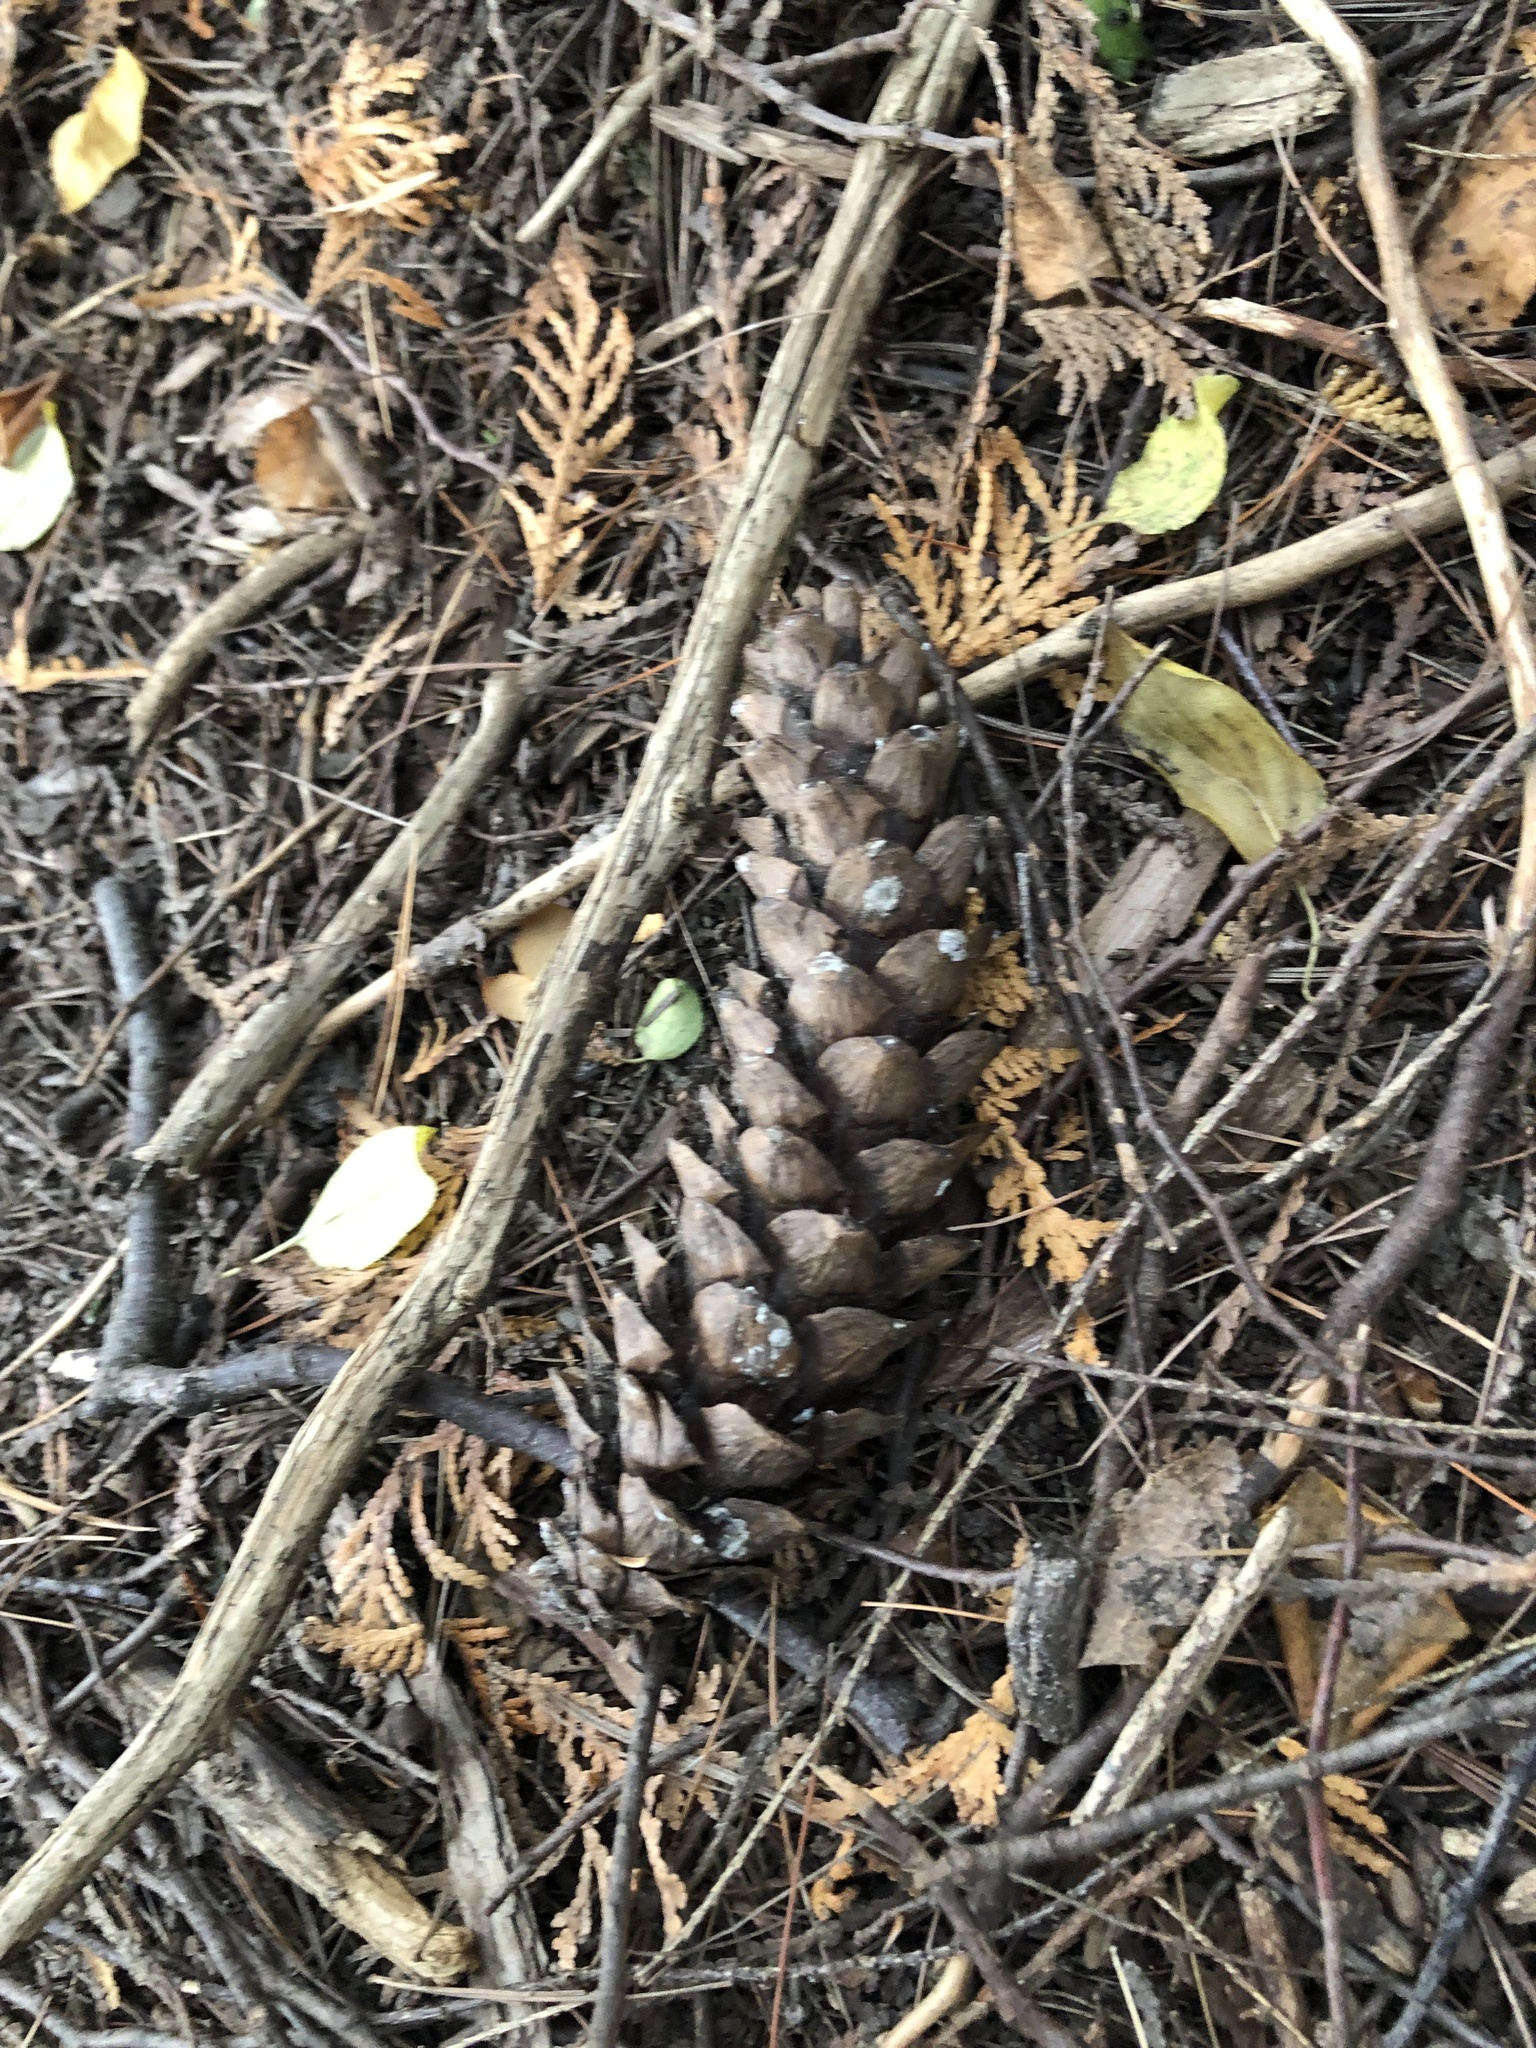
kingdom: Plantae
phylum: Tracheophyta
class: Pinopsida
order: Pinales
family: Pinaceae
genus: Pinus
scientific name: Pinus strobus
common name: Weymouth pine
